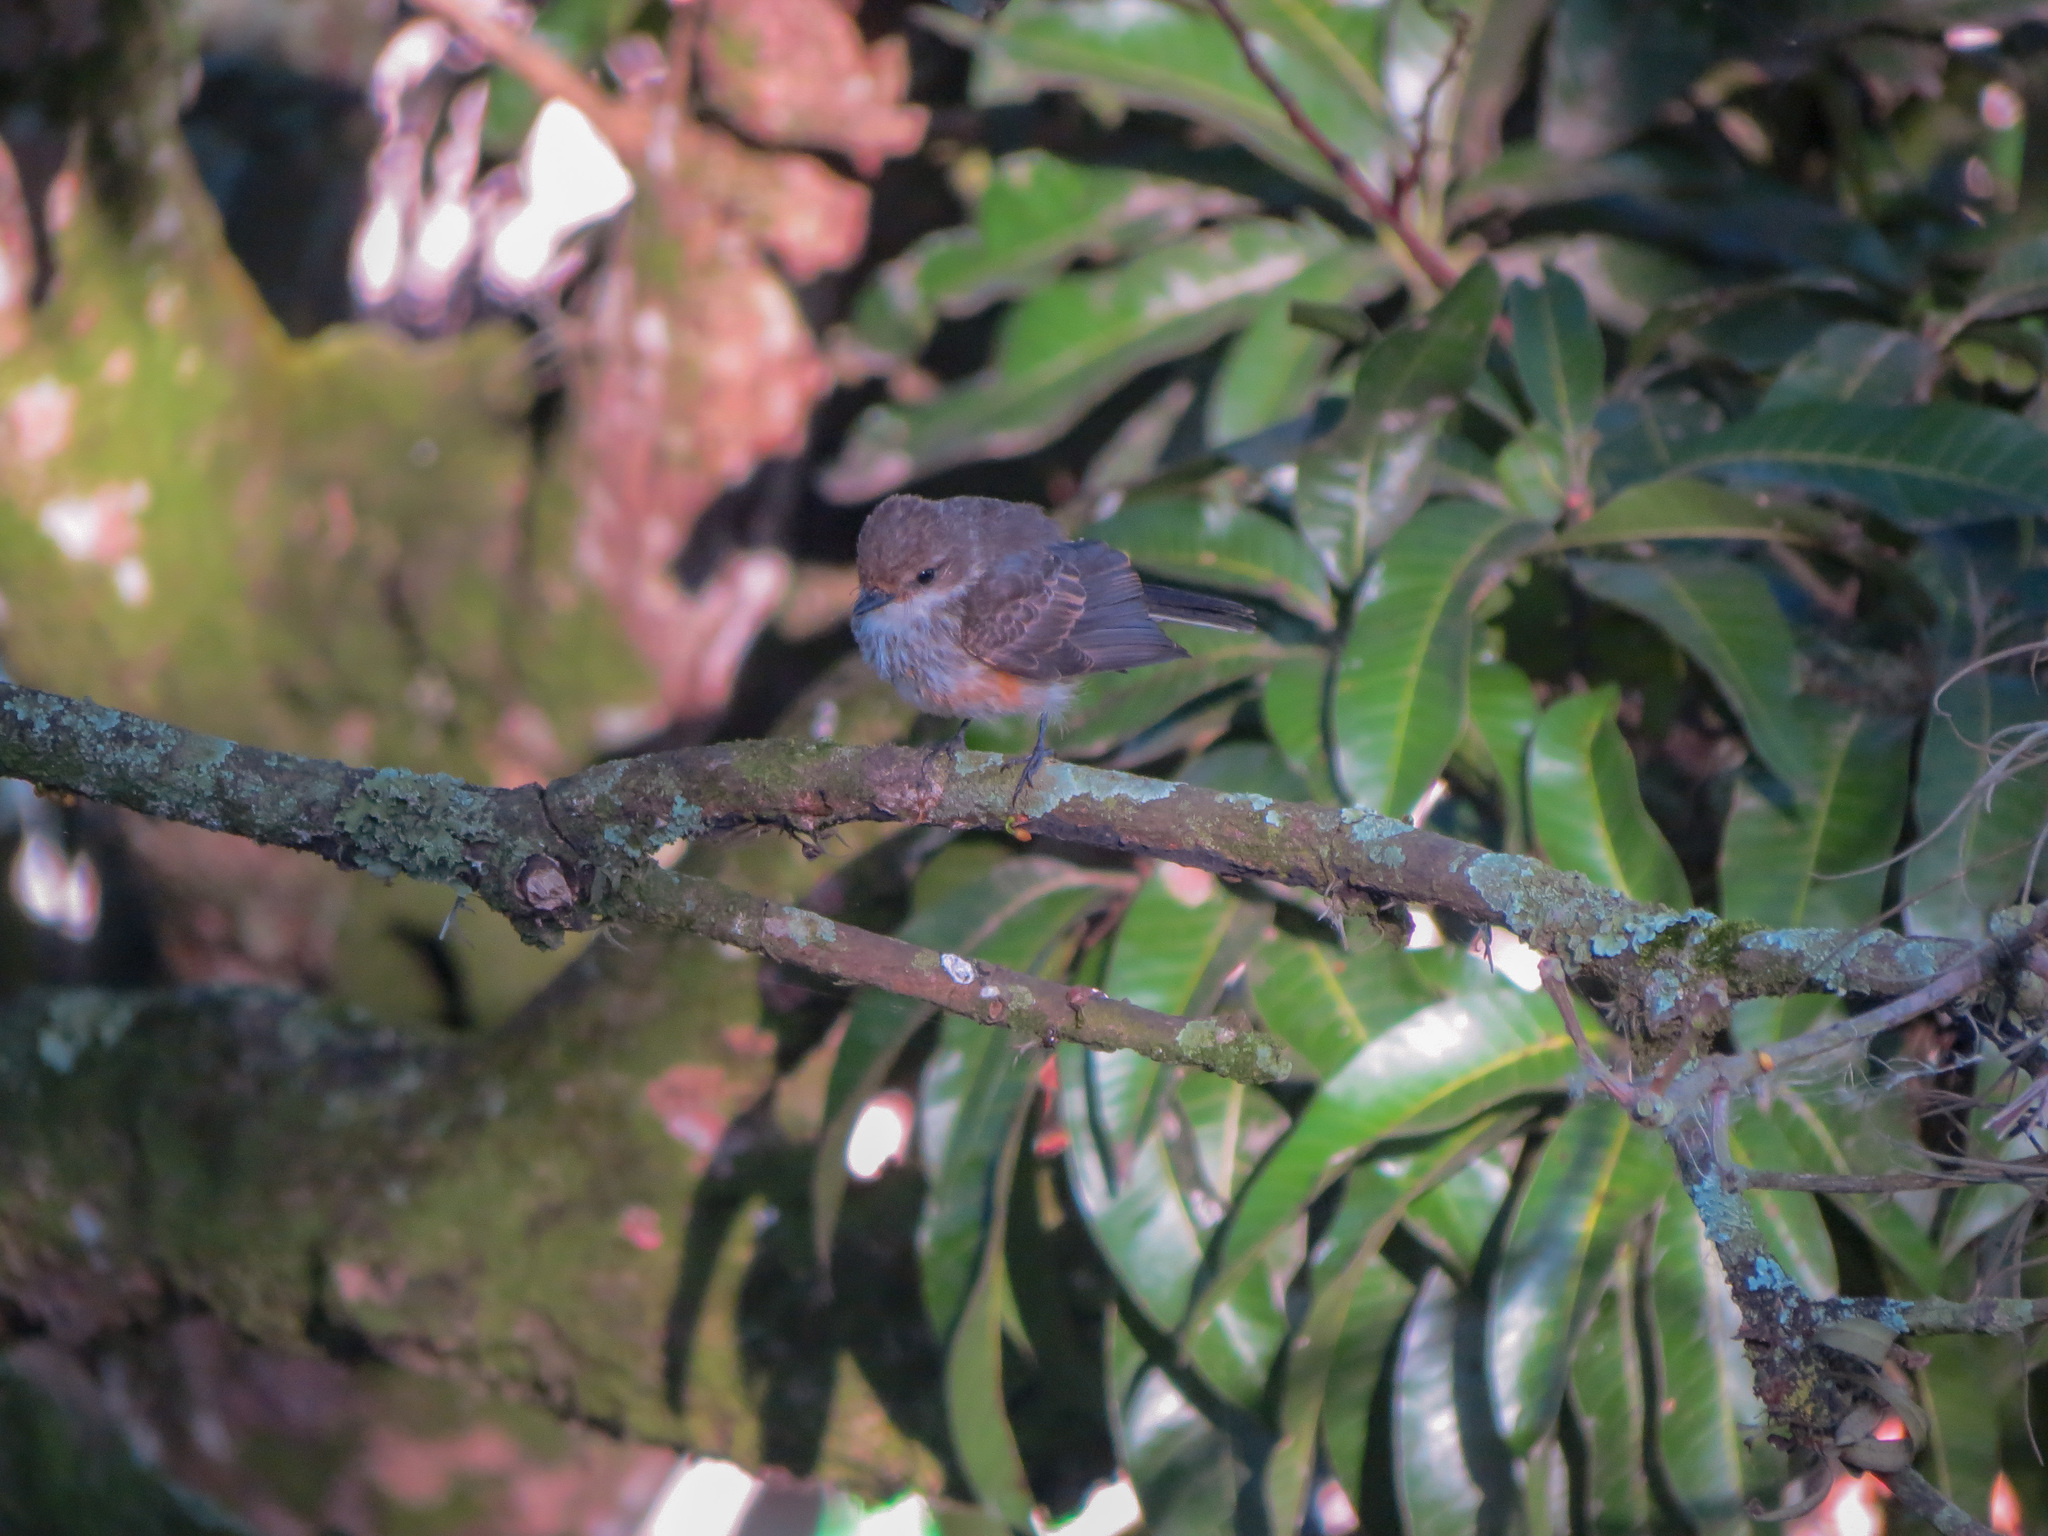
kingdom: Animalia
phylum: Chordata
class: Aves
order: Passeriformes
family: Tyrannidae
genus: Pyrocephalus
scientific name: Pyrocephalus rubinus
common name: Vermilion flycatcher
